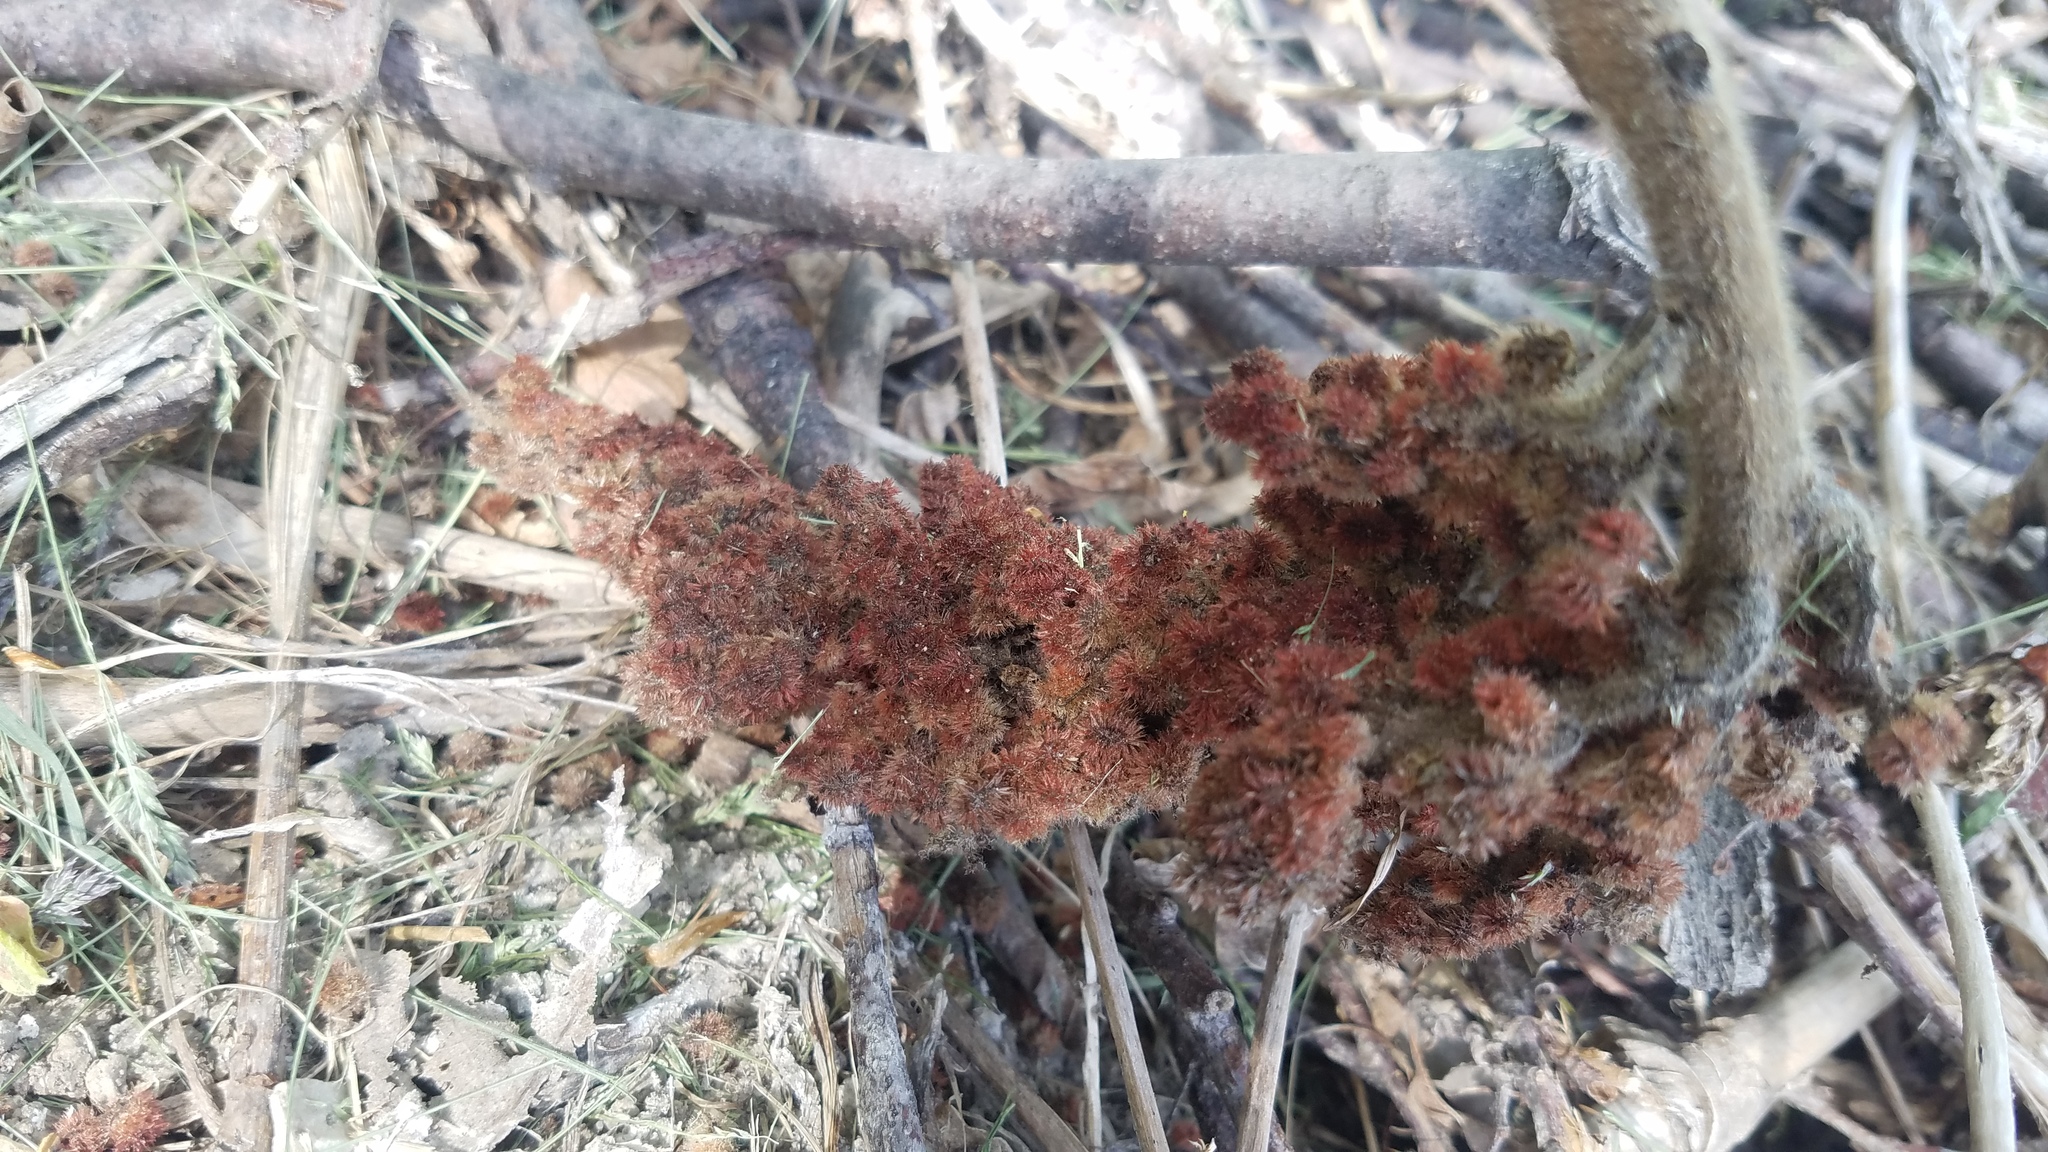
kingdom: Plantae
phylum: Tracheophyta
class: Magnoliopsida
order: Sapindales
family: Anacardiaceae
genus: Rhus
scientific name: Rhus typhina
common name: Staghorn sumac
